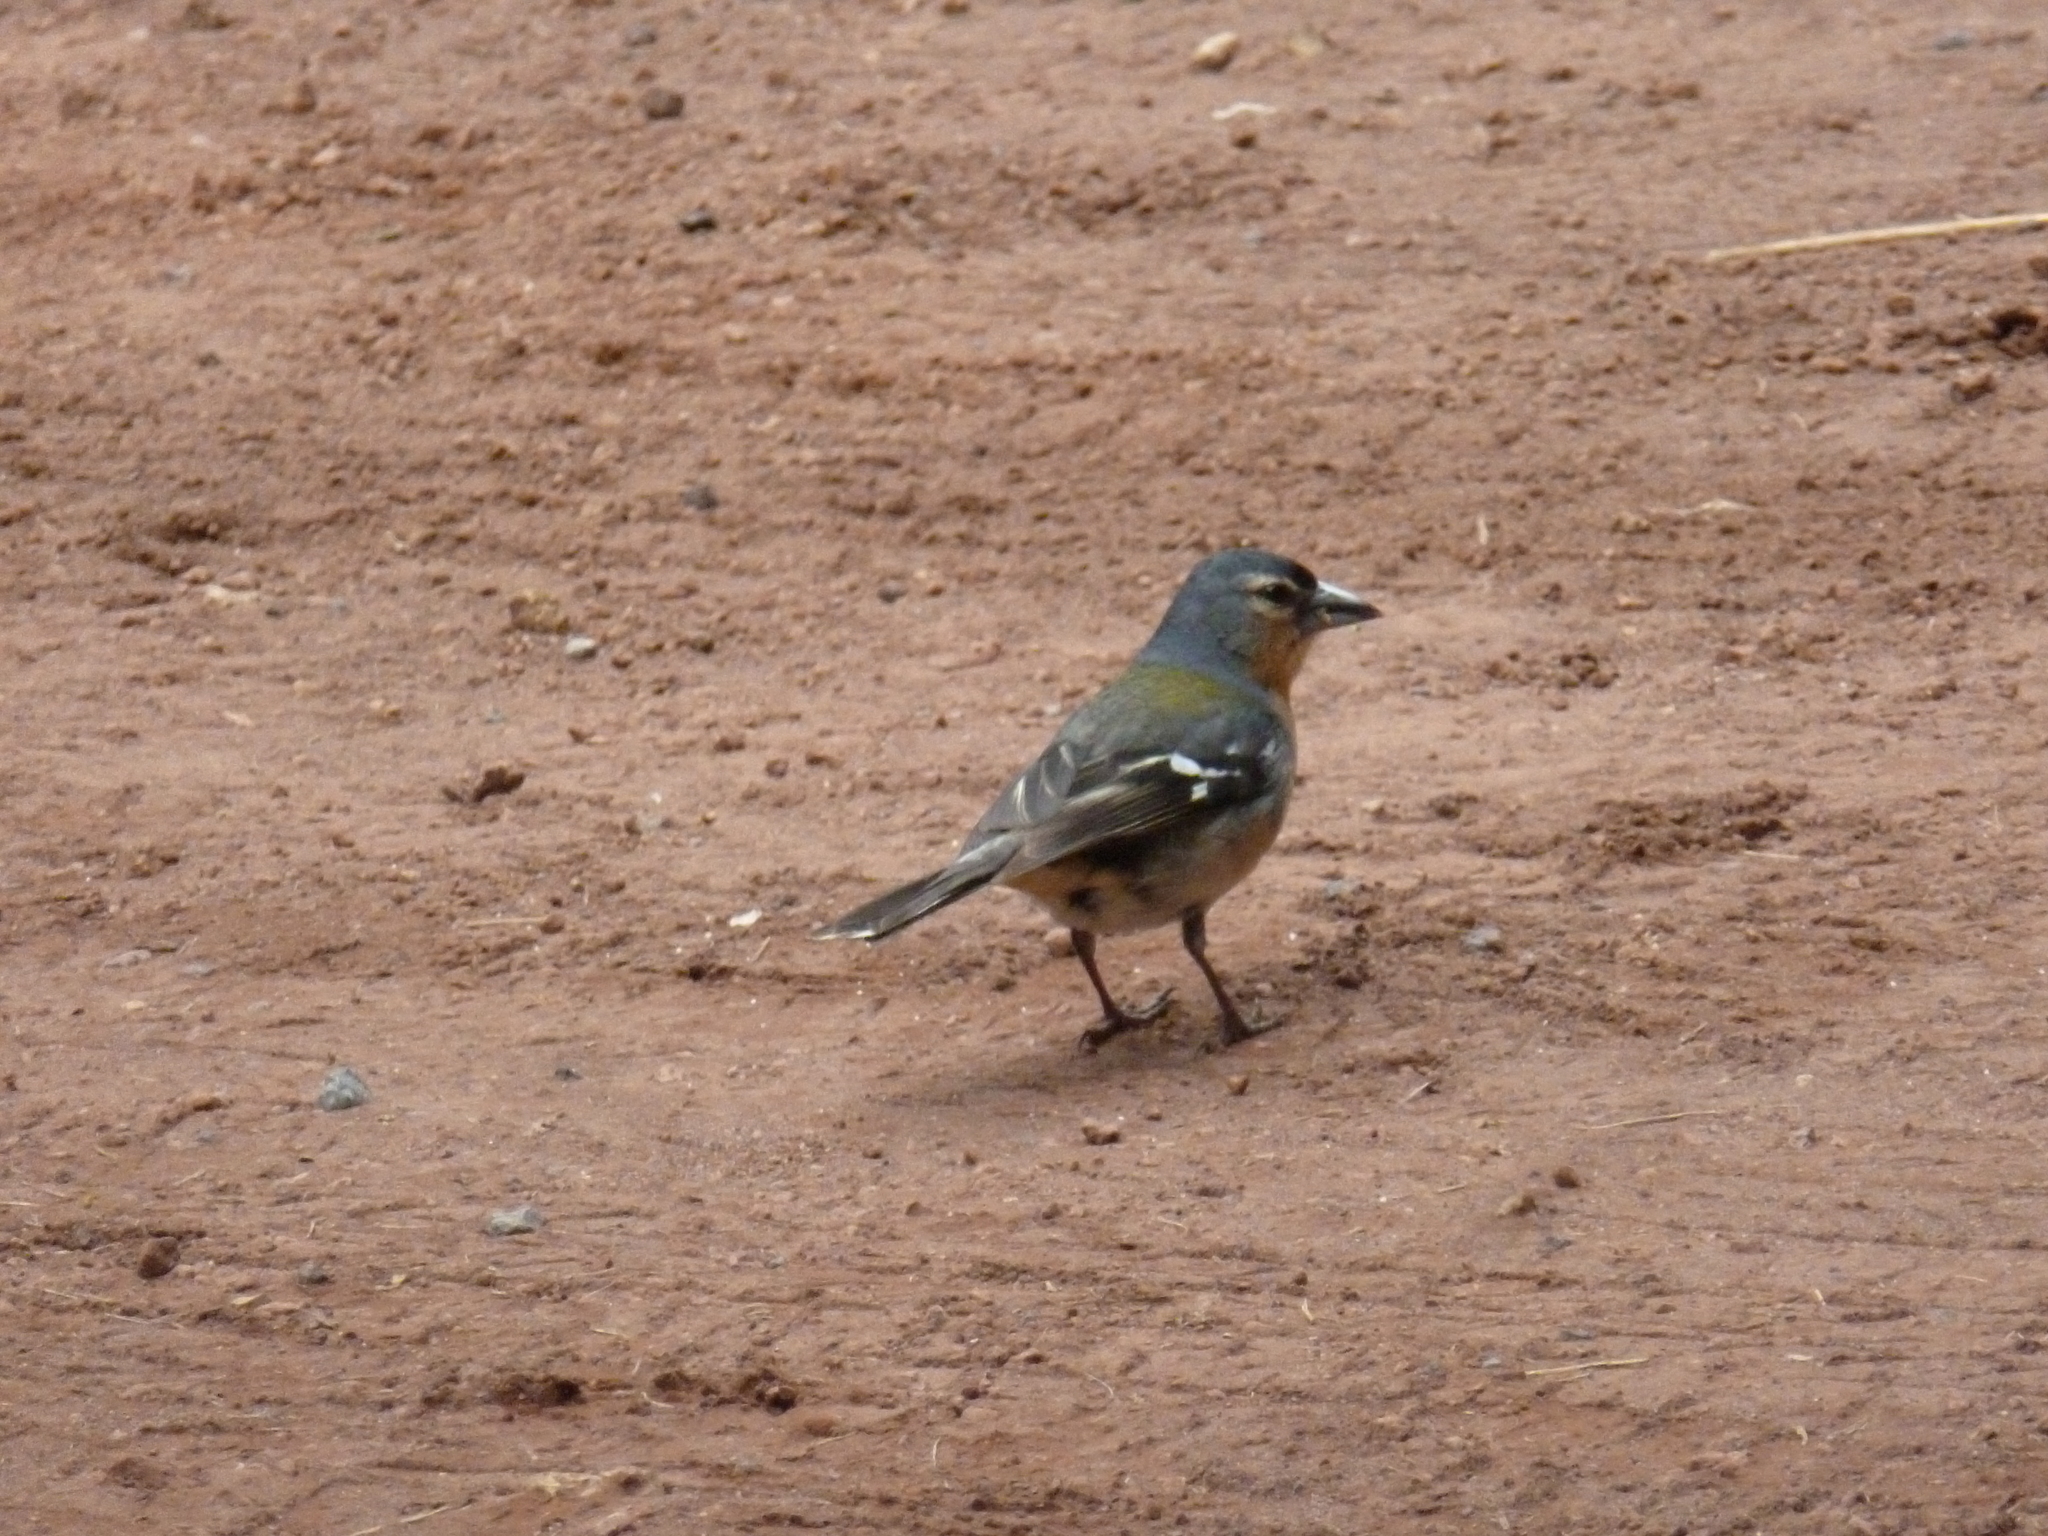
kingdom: Animalia
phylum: Chordata
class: Aves
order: Passeriformes
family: Fringillidae
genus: Fringilla
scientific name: Fringilla moreletti
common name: Azores chaffinch
